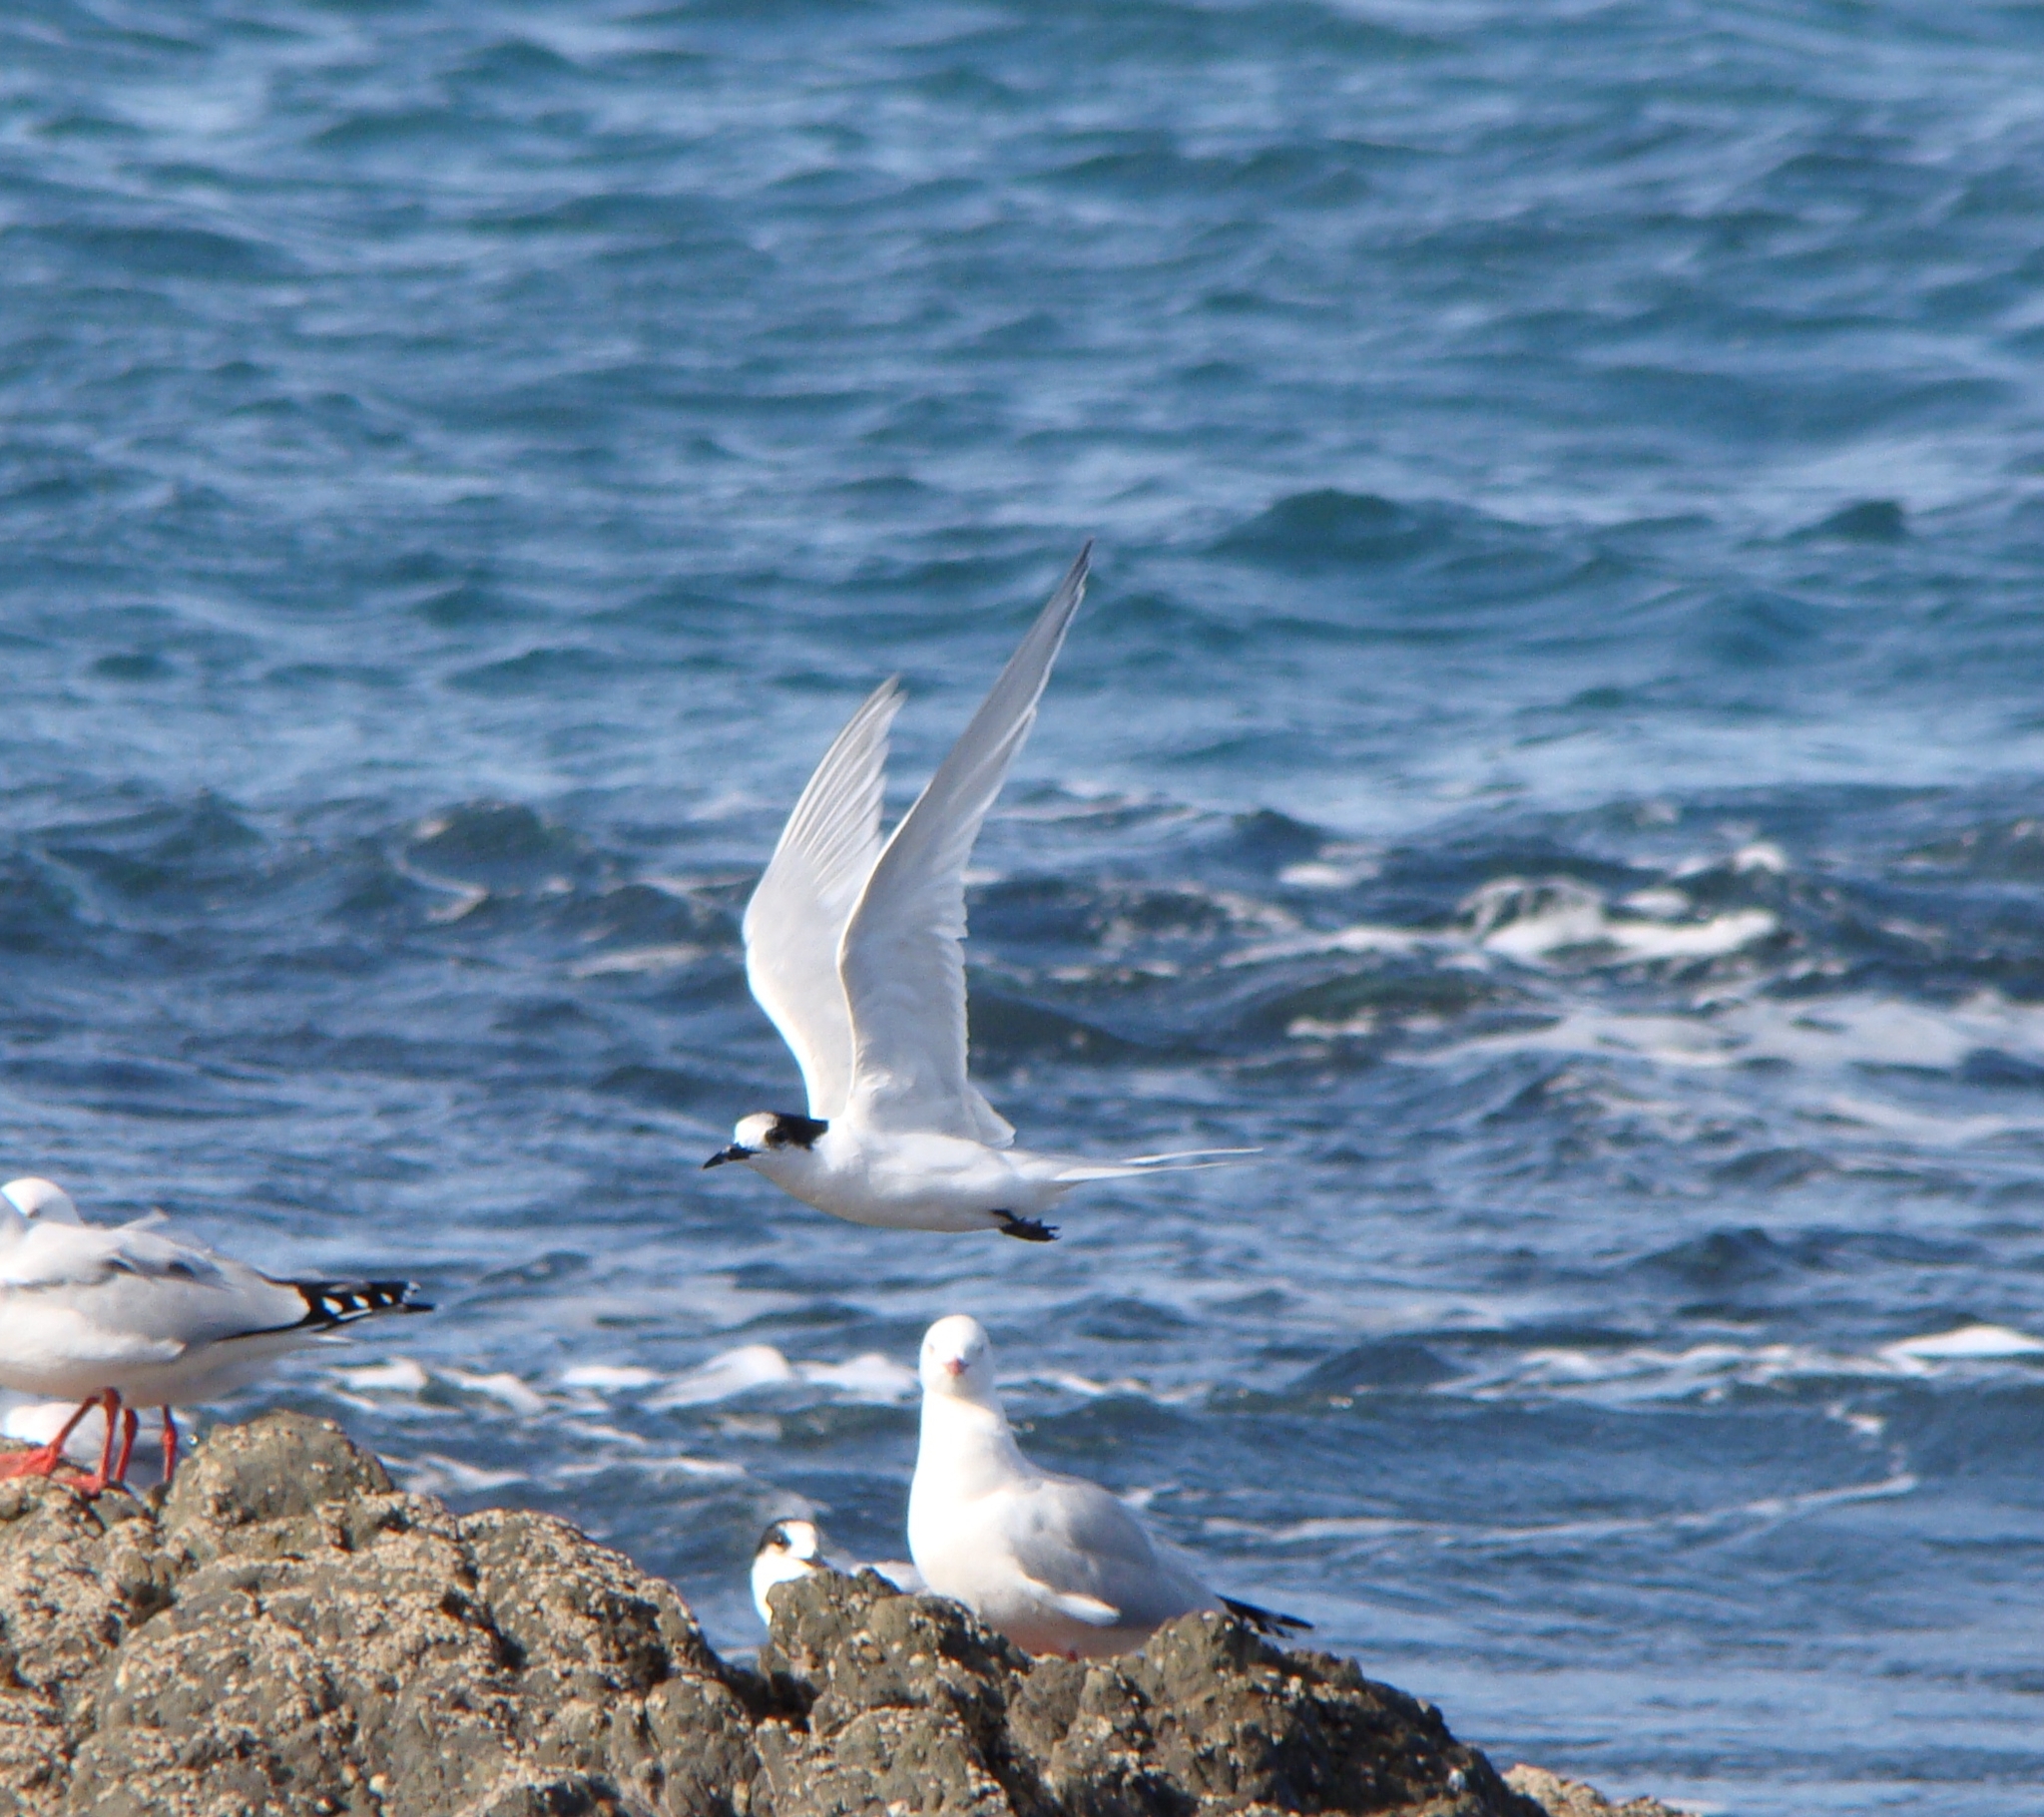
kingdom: Animalia
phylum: Chordata
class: Aves
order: Charadriiformes
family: Laridae
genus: Sterna
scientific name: Sterna striata
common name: White-fronted tern
